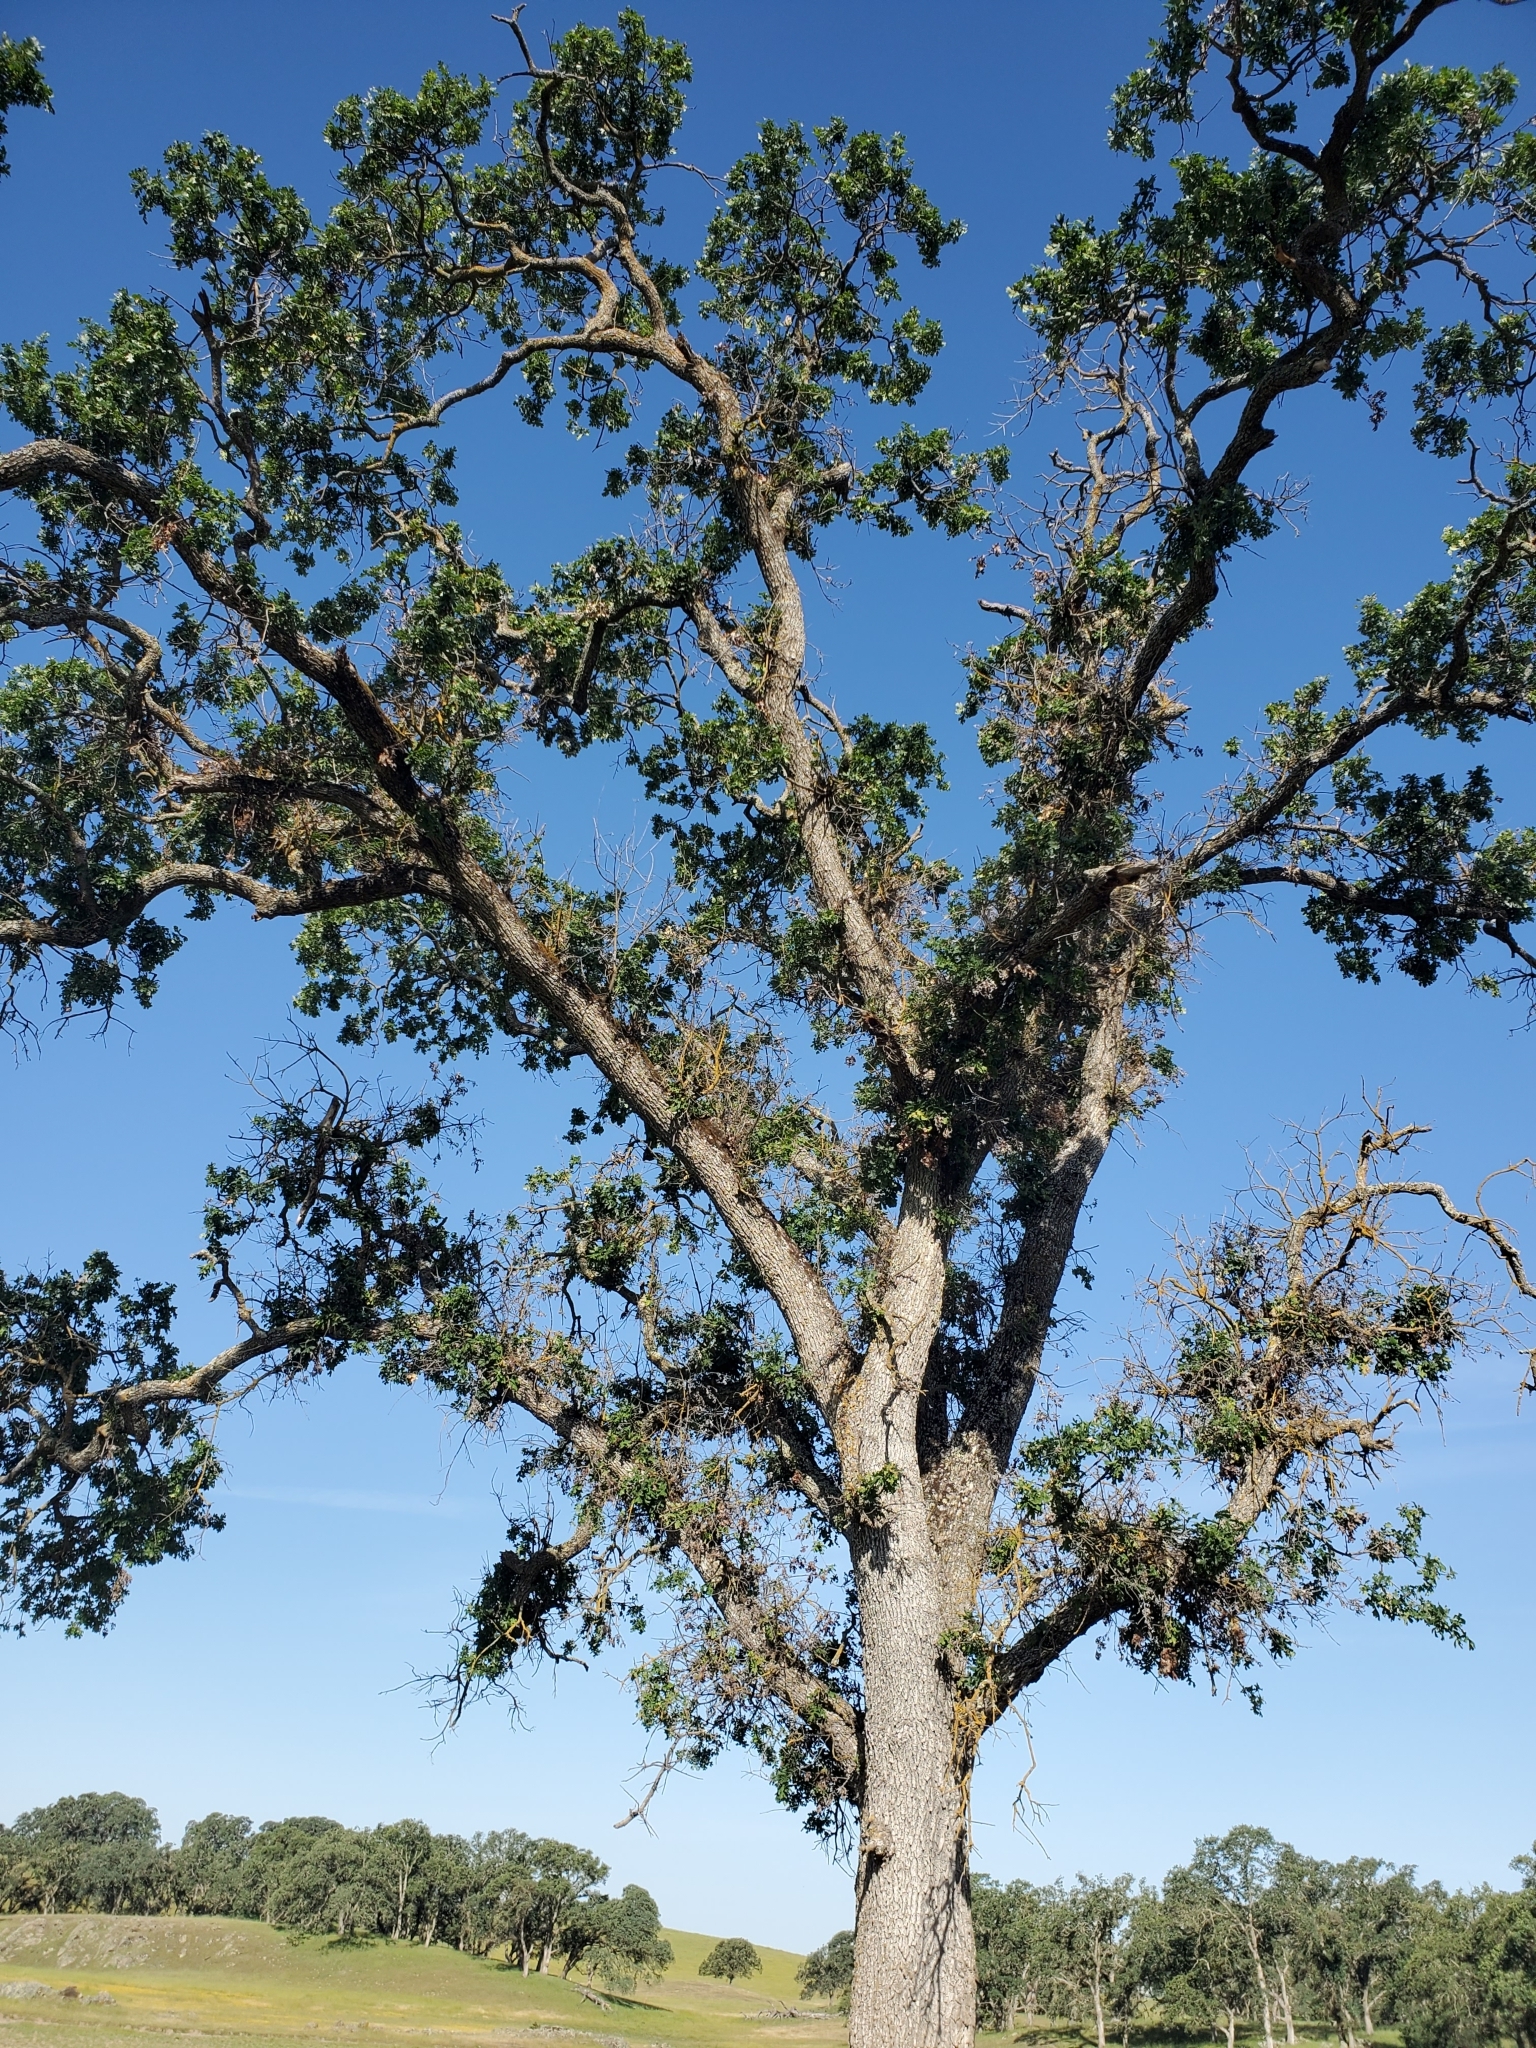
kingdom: Plantae
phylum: Tracheophyta
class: Magnoliopsida
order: Fagales
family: Fagaceae
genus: Quercus
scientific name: Quercus lobata
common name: Valley oak
